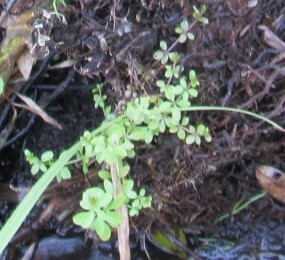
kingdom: Plantae
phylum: Tracheophyta
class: Magnoliopsida
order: Gentianales
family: Rubiaceae
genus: Galium
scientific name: Galium palustre
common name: Common marsh-bedstraw
